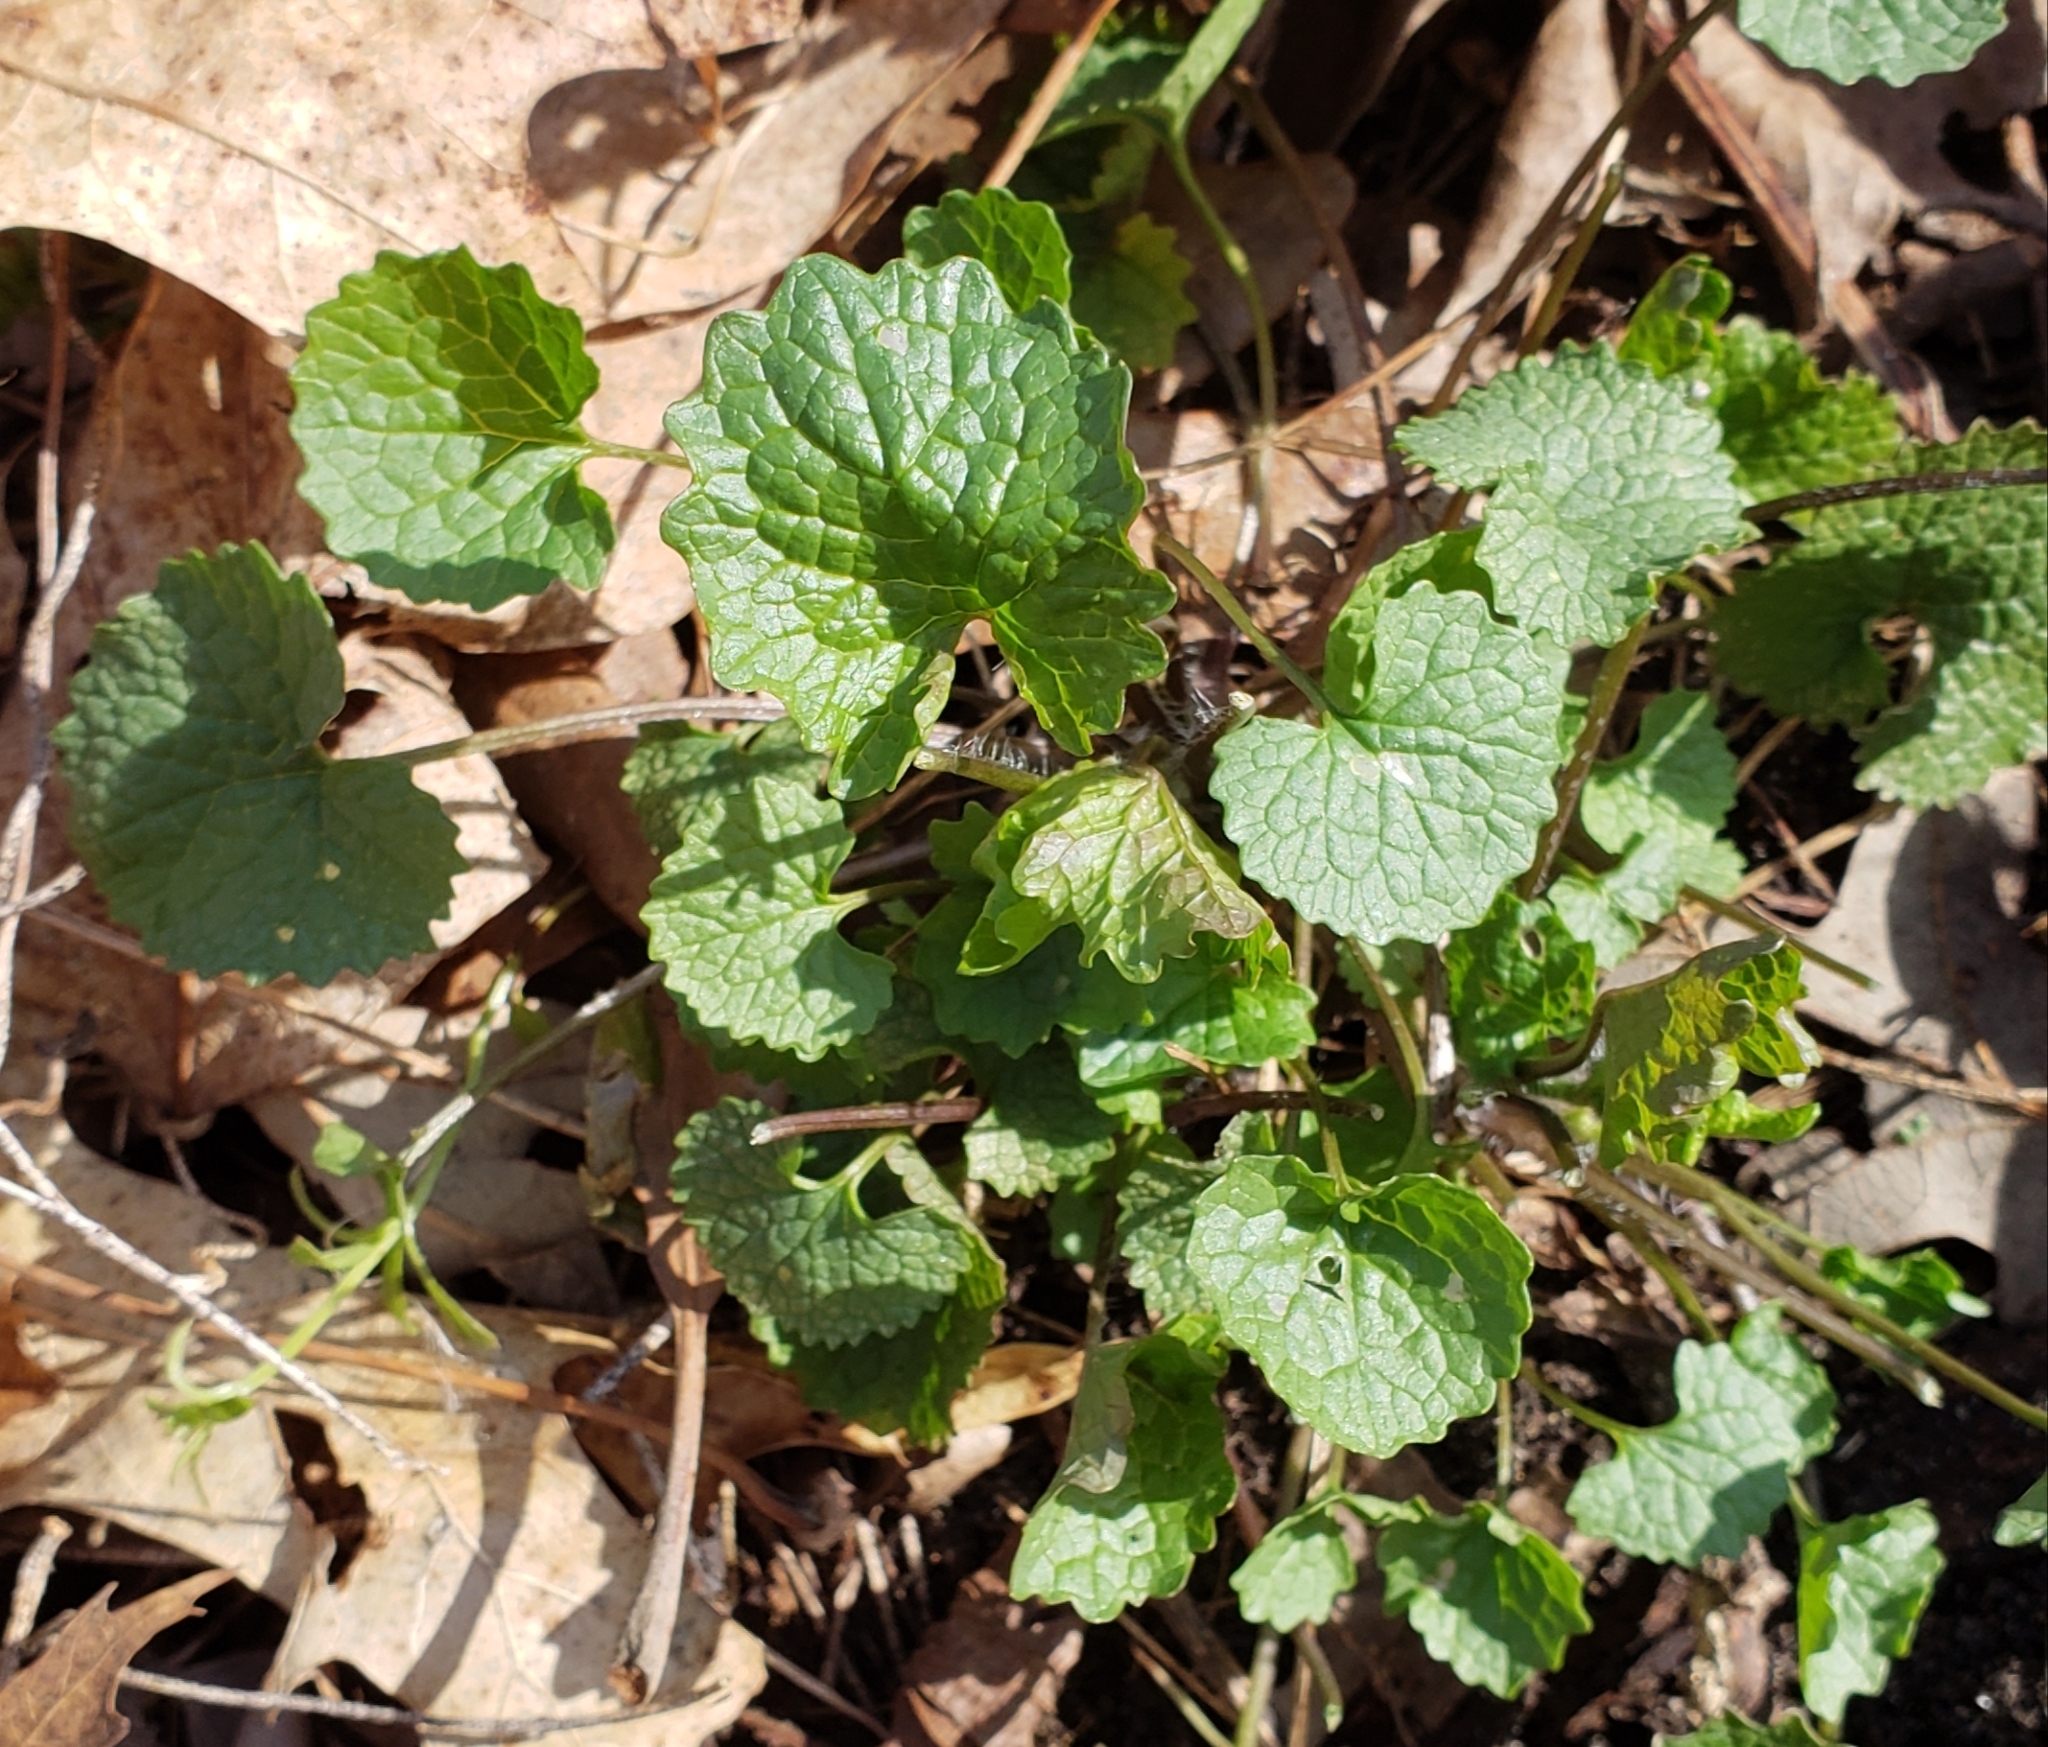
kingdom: Plantae
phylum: Tracheophyta
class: Magnoliopsida
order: Brassicales
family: Brassicaceae
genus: Alliaria
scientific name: Alliaria petiolata
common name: Garlic mustard
